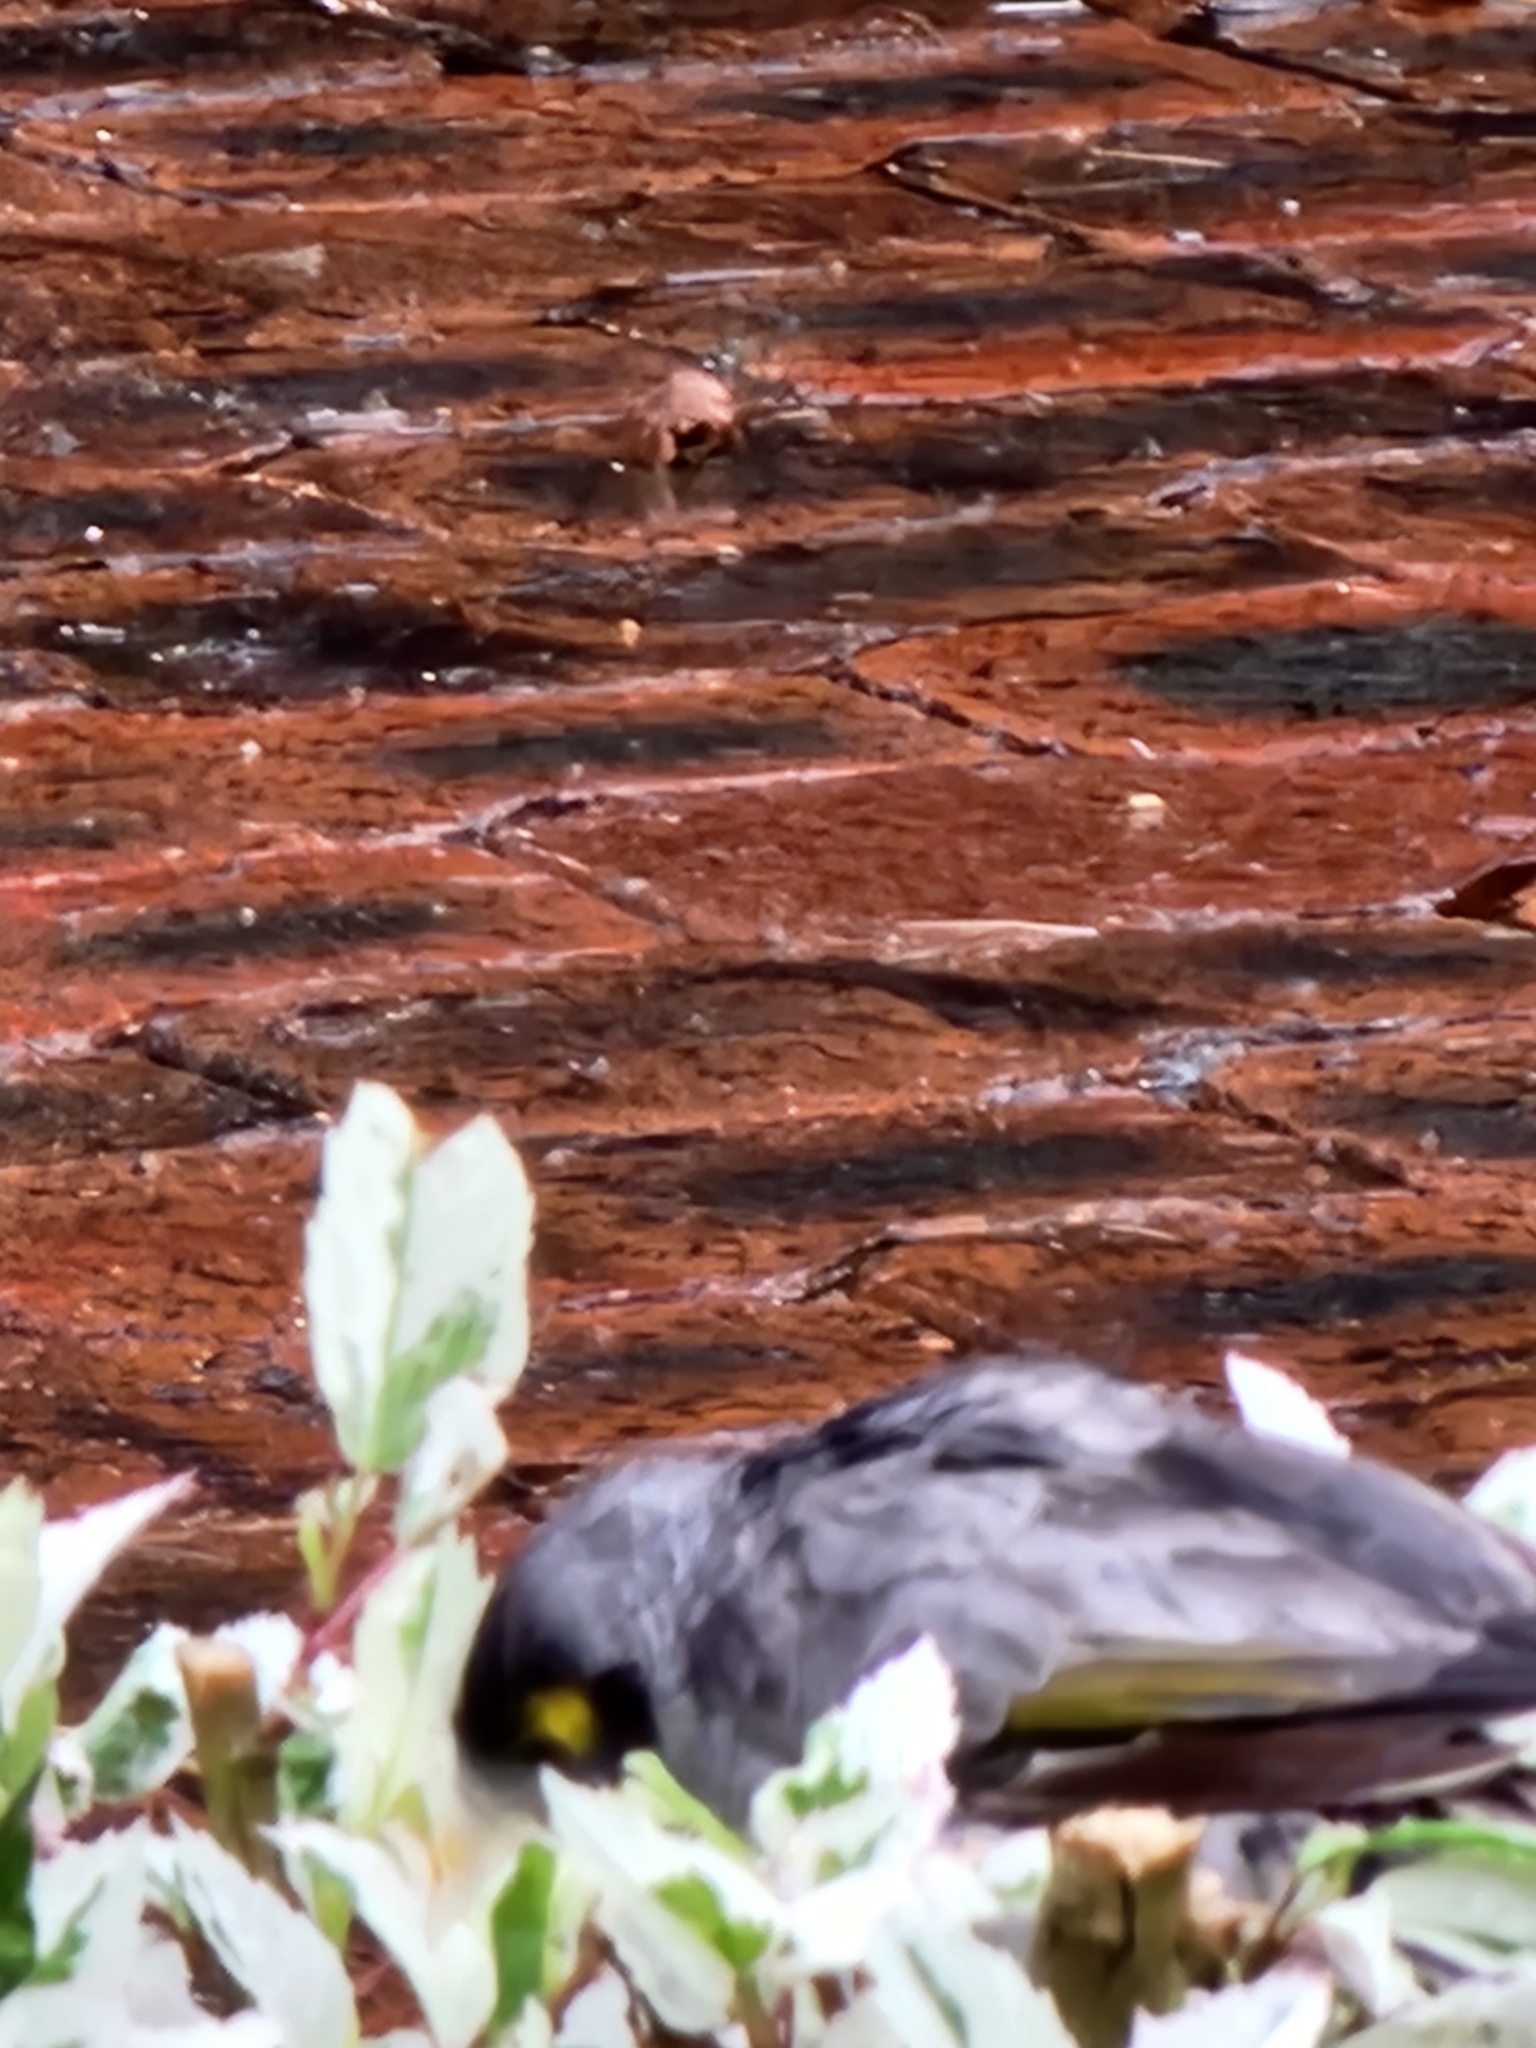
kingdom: Animalia
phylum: Chordata
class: Aves
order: Passeriformes
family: Meliphagidae
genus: Manorina
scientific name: Manorina melanocephala
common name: Noisy miner
